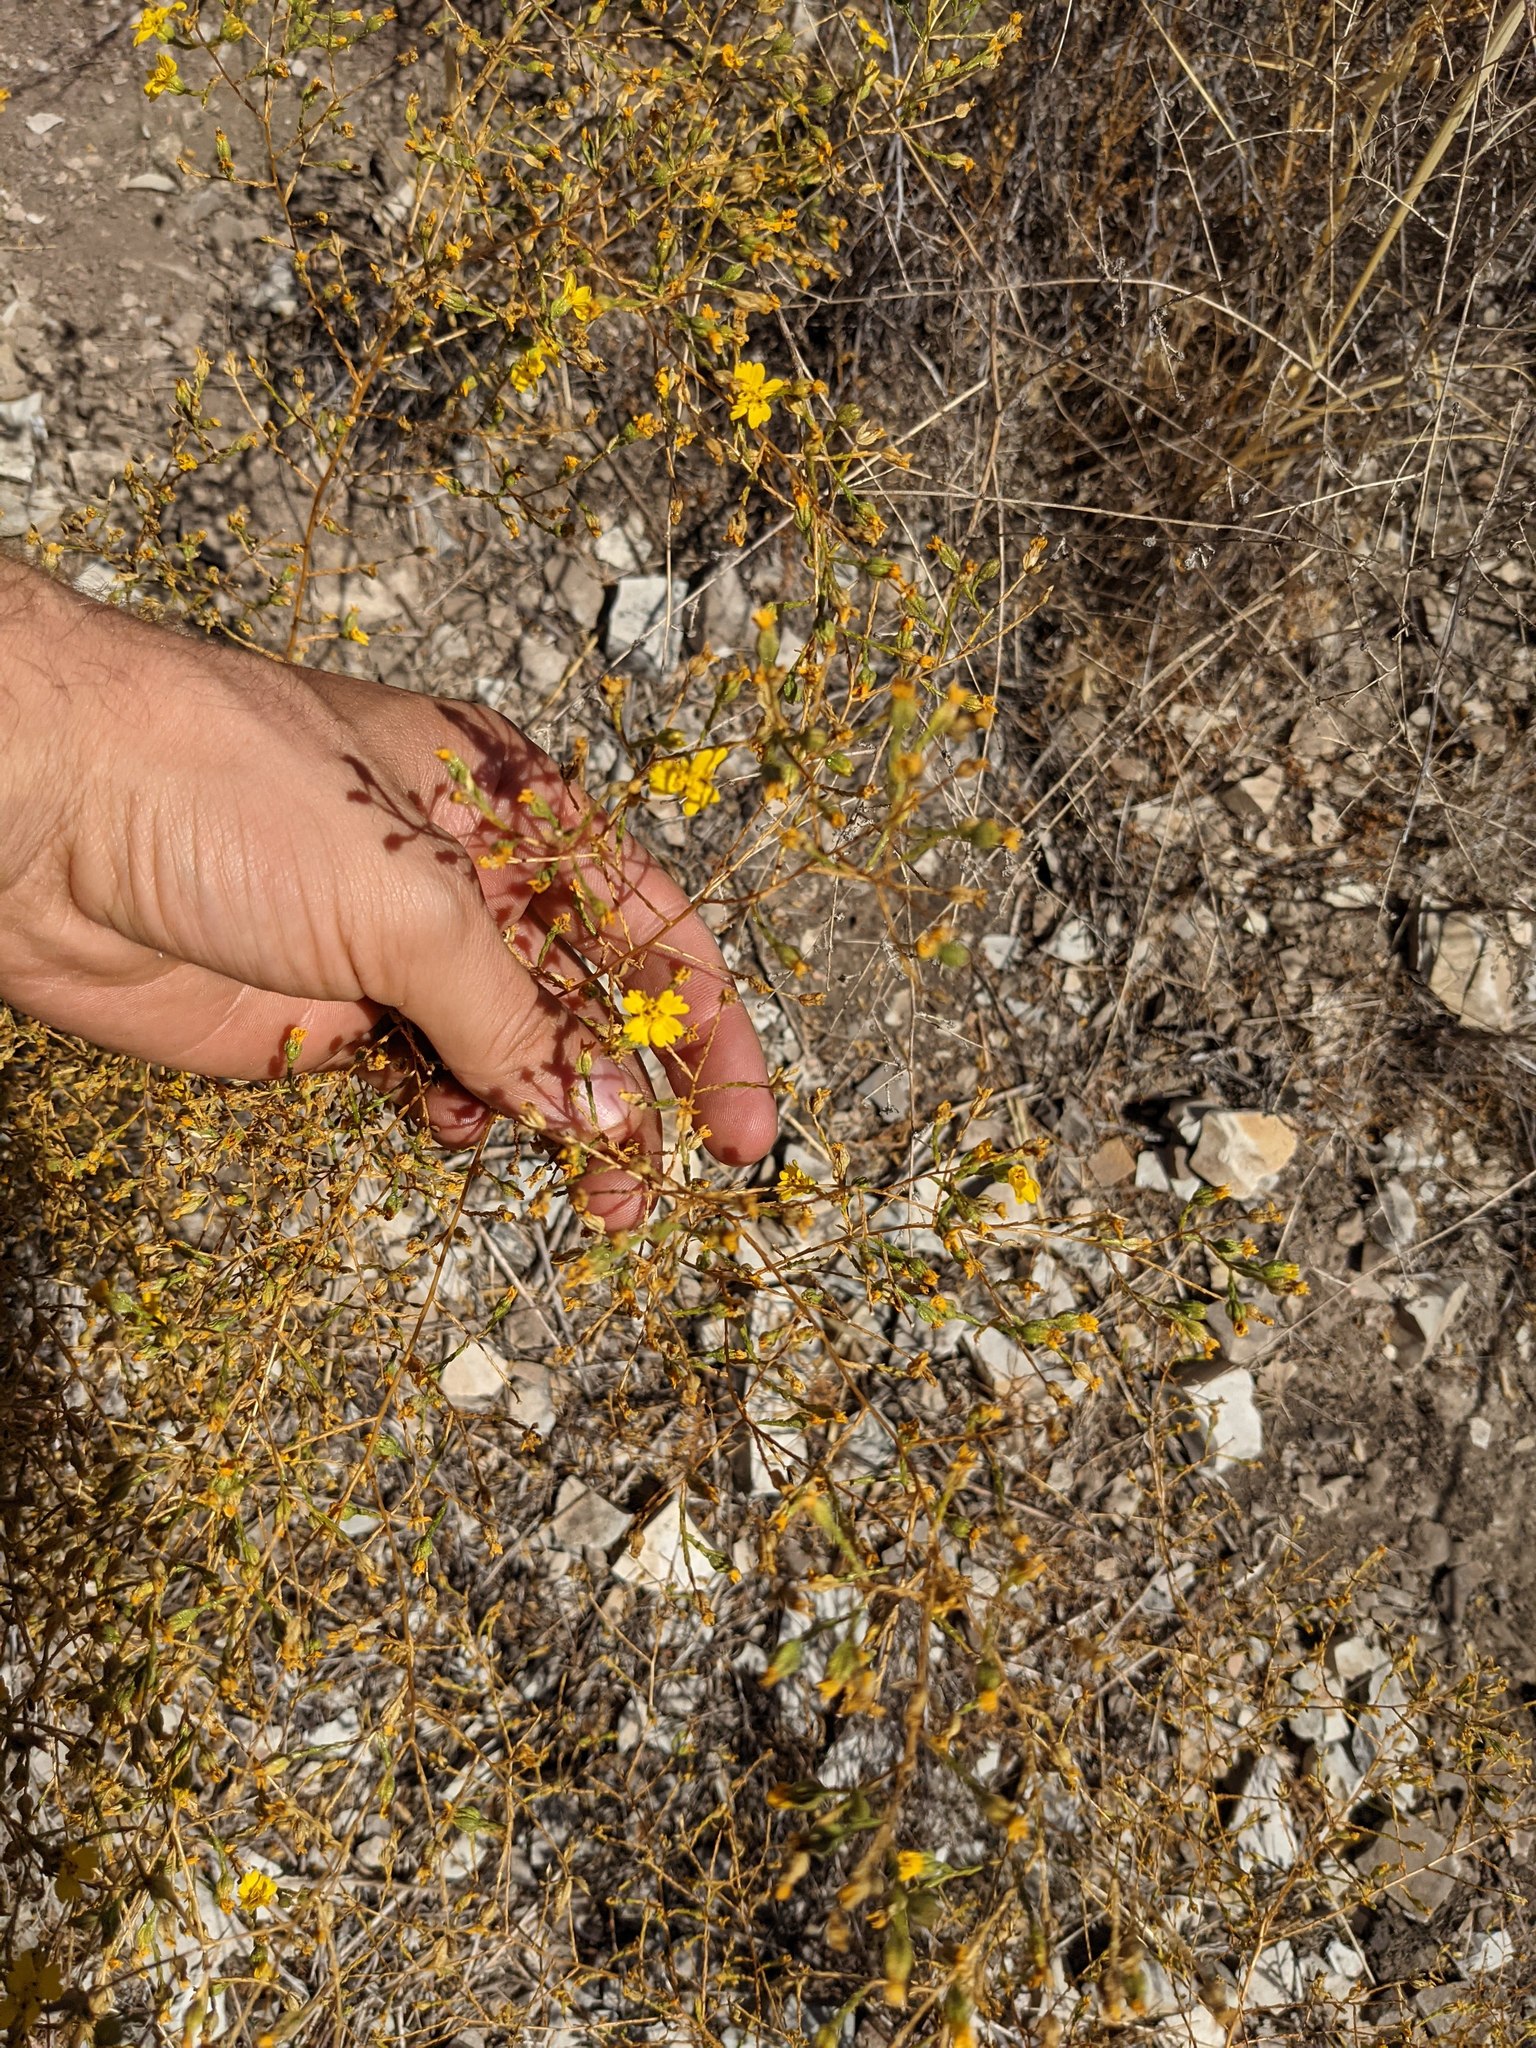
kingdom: Plantae
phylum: Tracheophyta
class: Magnoliopsida
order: Asterales
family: Asteraceae
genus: Deinandra
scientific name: Deinandra lobbii
